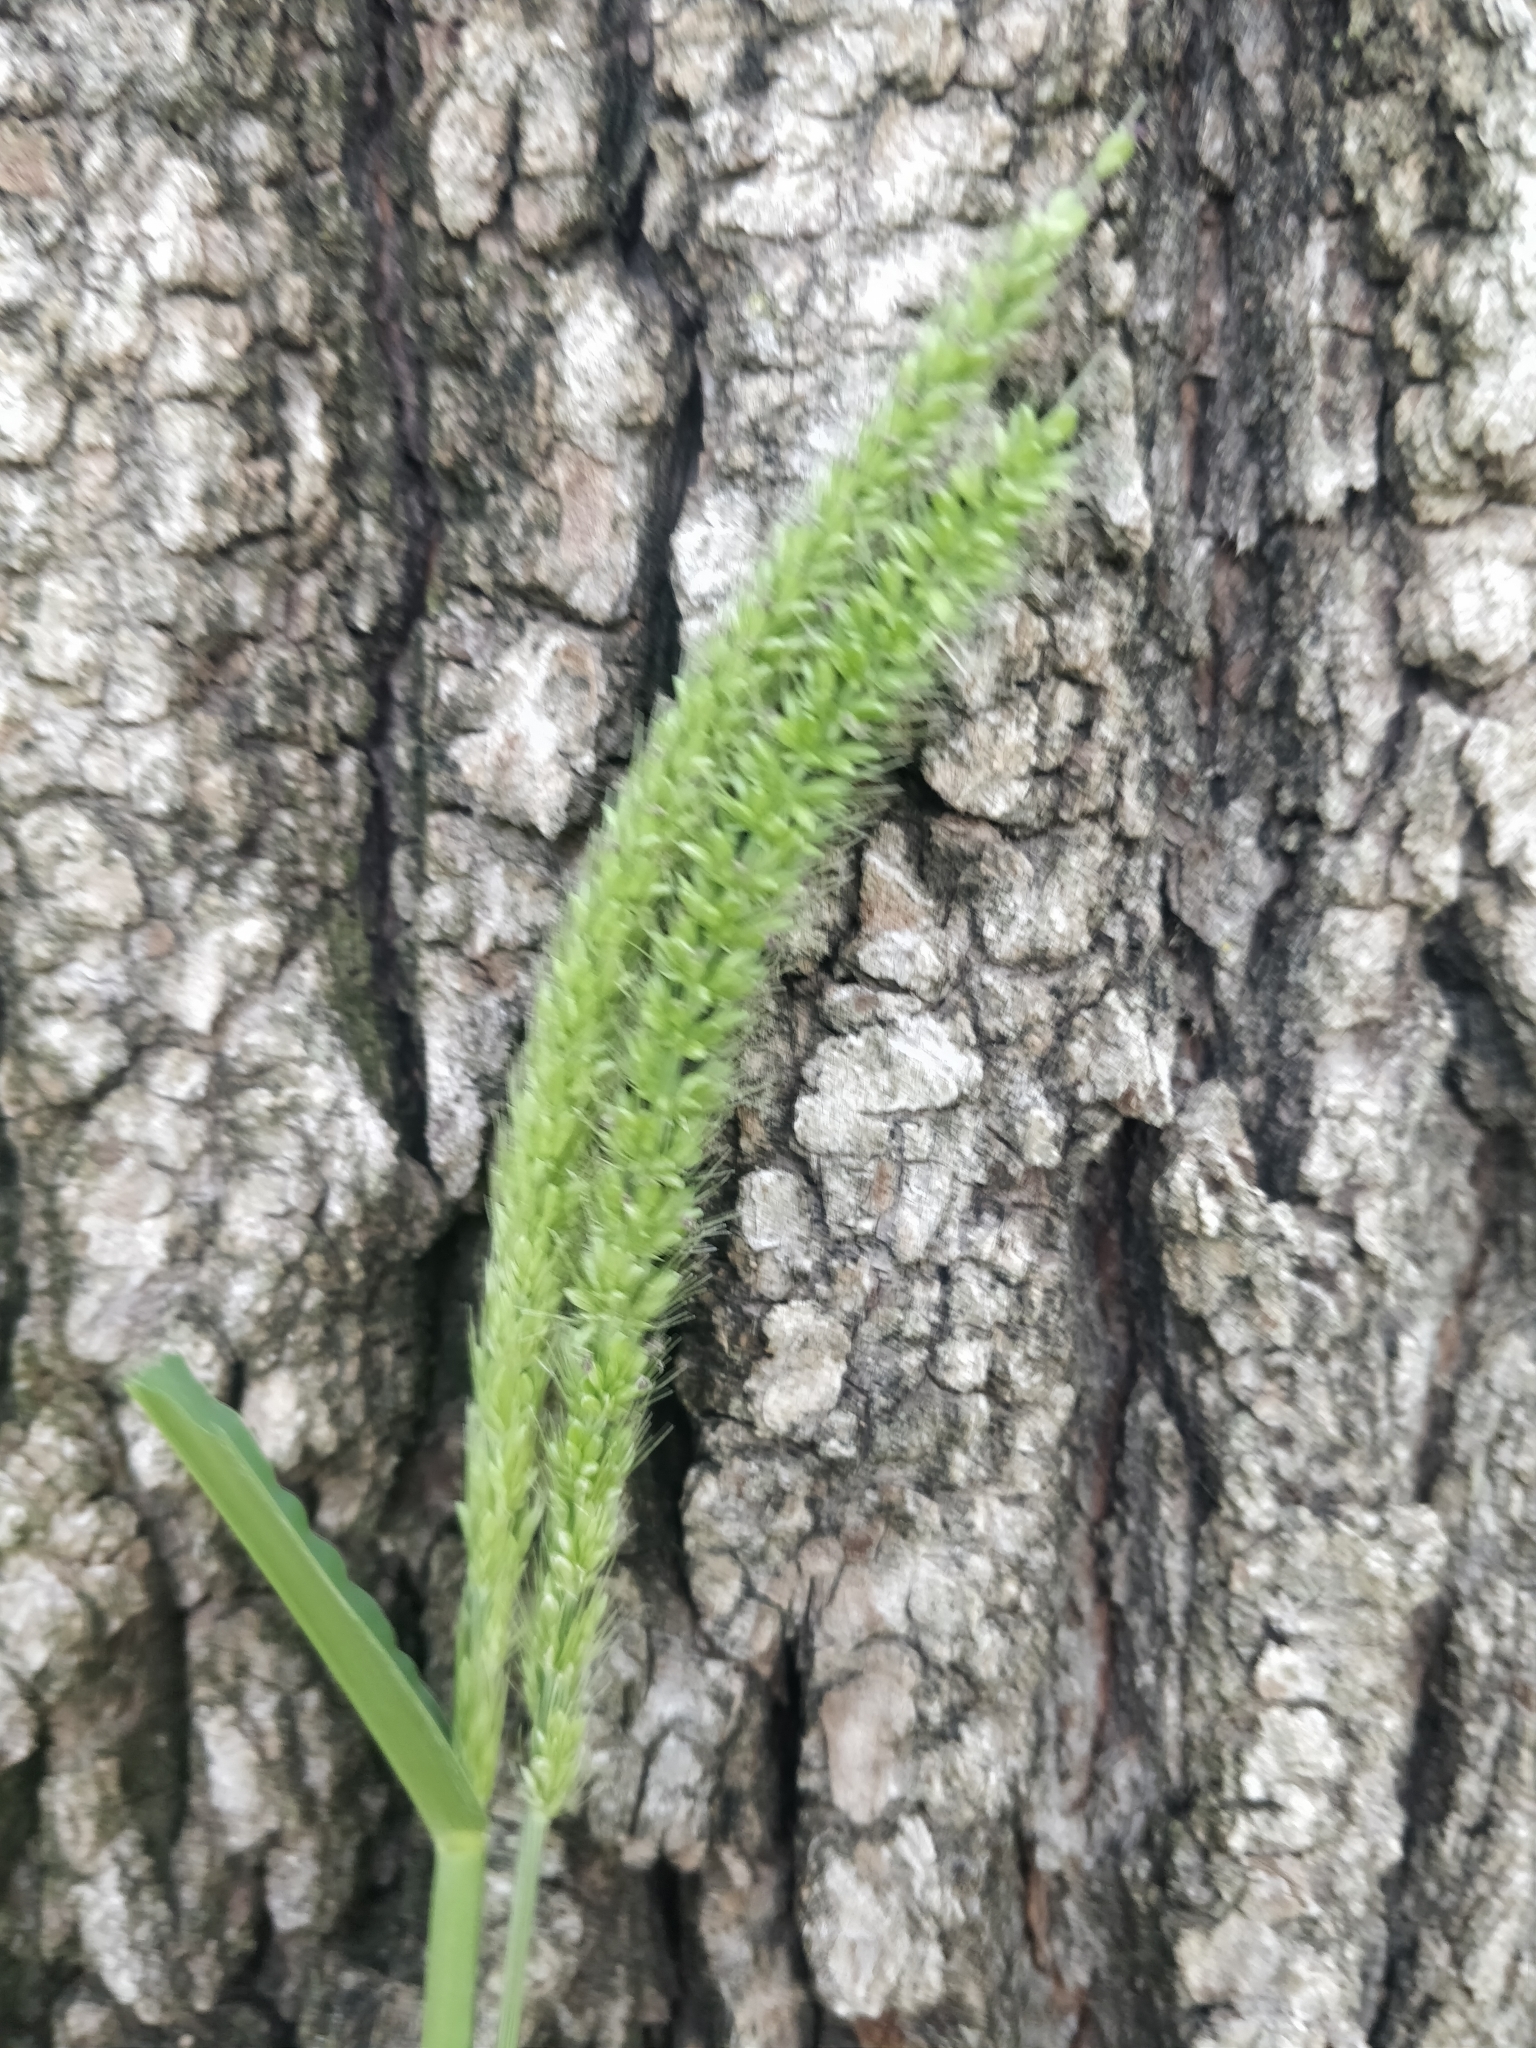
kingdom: Plantae
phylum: Tracheophyta
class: Liliopsida
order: Poales
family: Poaceae
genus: Setaria
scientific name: Setaria verticillata
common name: Hooked bristlegrass
